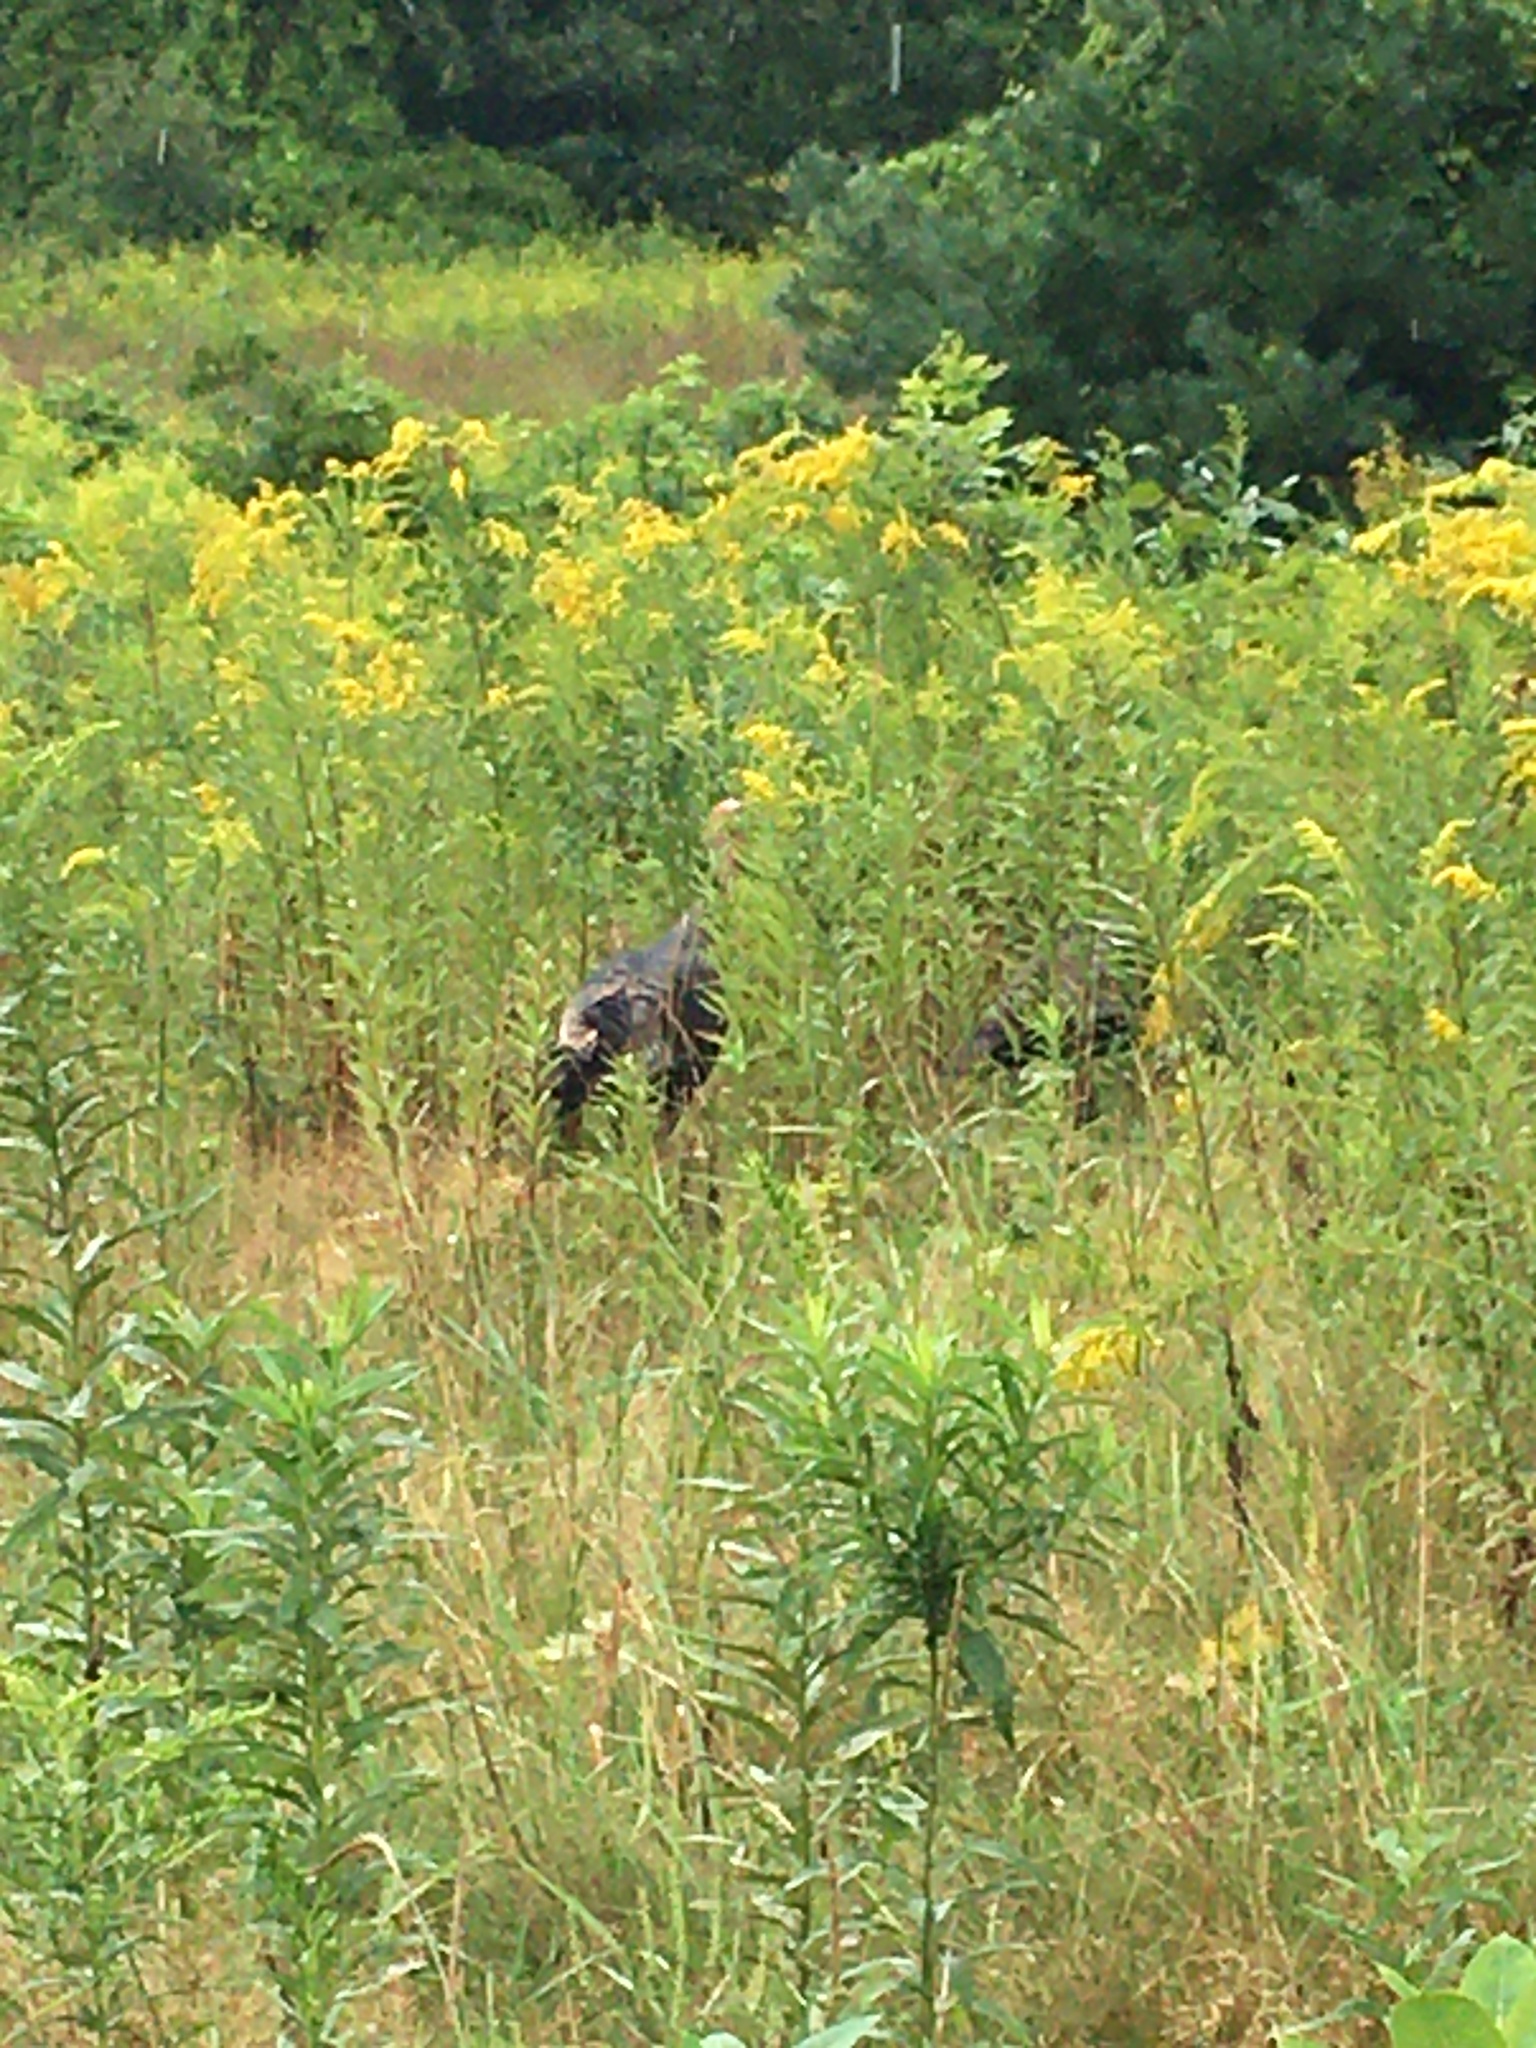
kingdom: Animalia
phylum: Chordata
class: Aves
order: Galliformes
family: Phasianidae
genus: Meleagris
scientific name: Meleagris gallopavo
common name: Wild turkey
